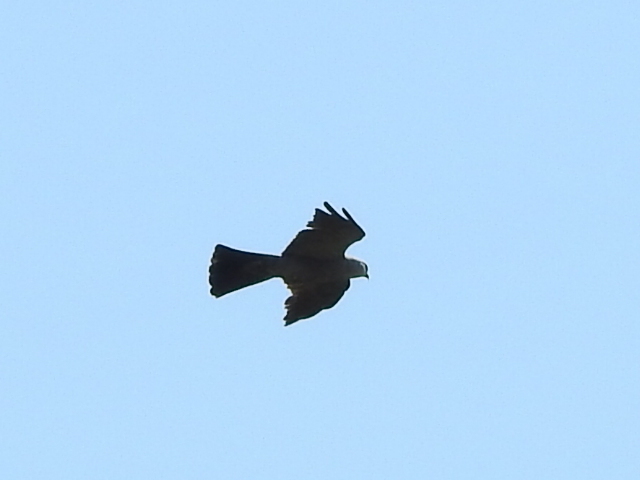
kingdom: Animalia
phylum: Chordata
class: Aves
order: Accipitriformes
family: Accipitridae
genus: Ictinia
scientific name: Ictinia mississippiensis
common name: Mississippi kite
